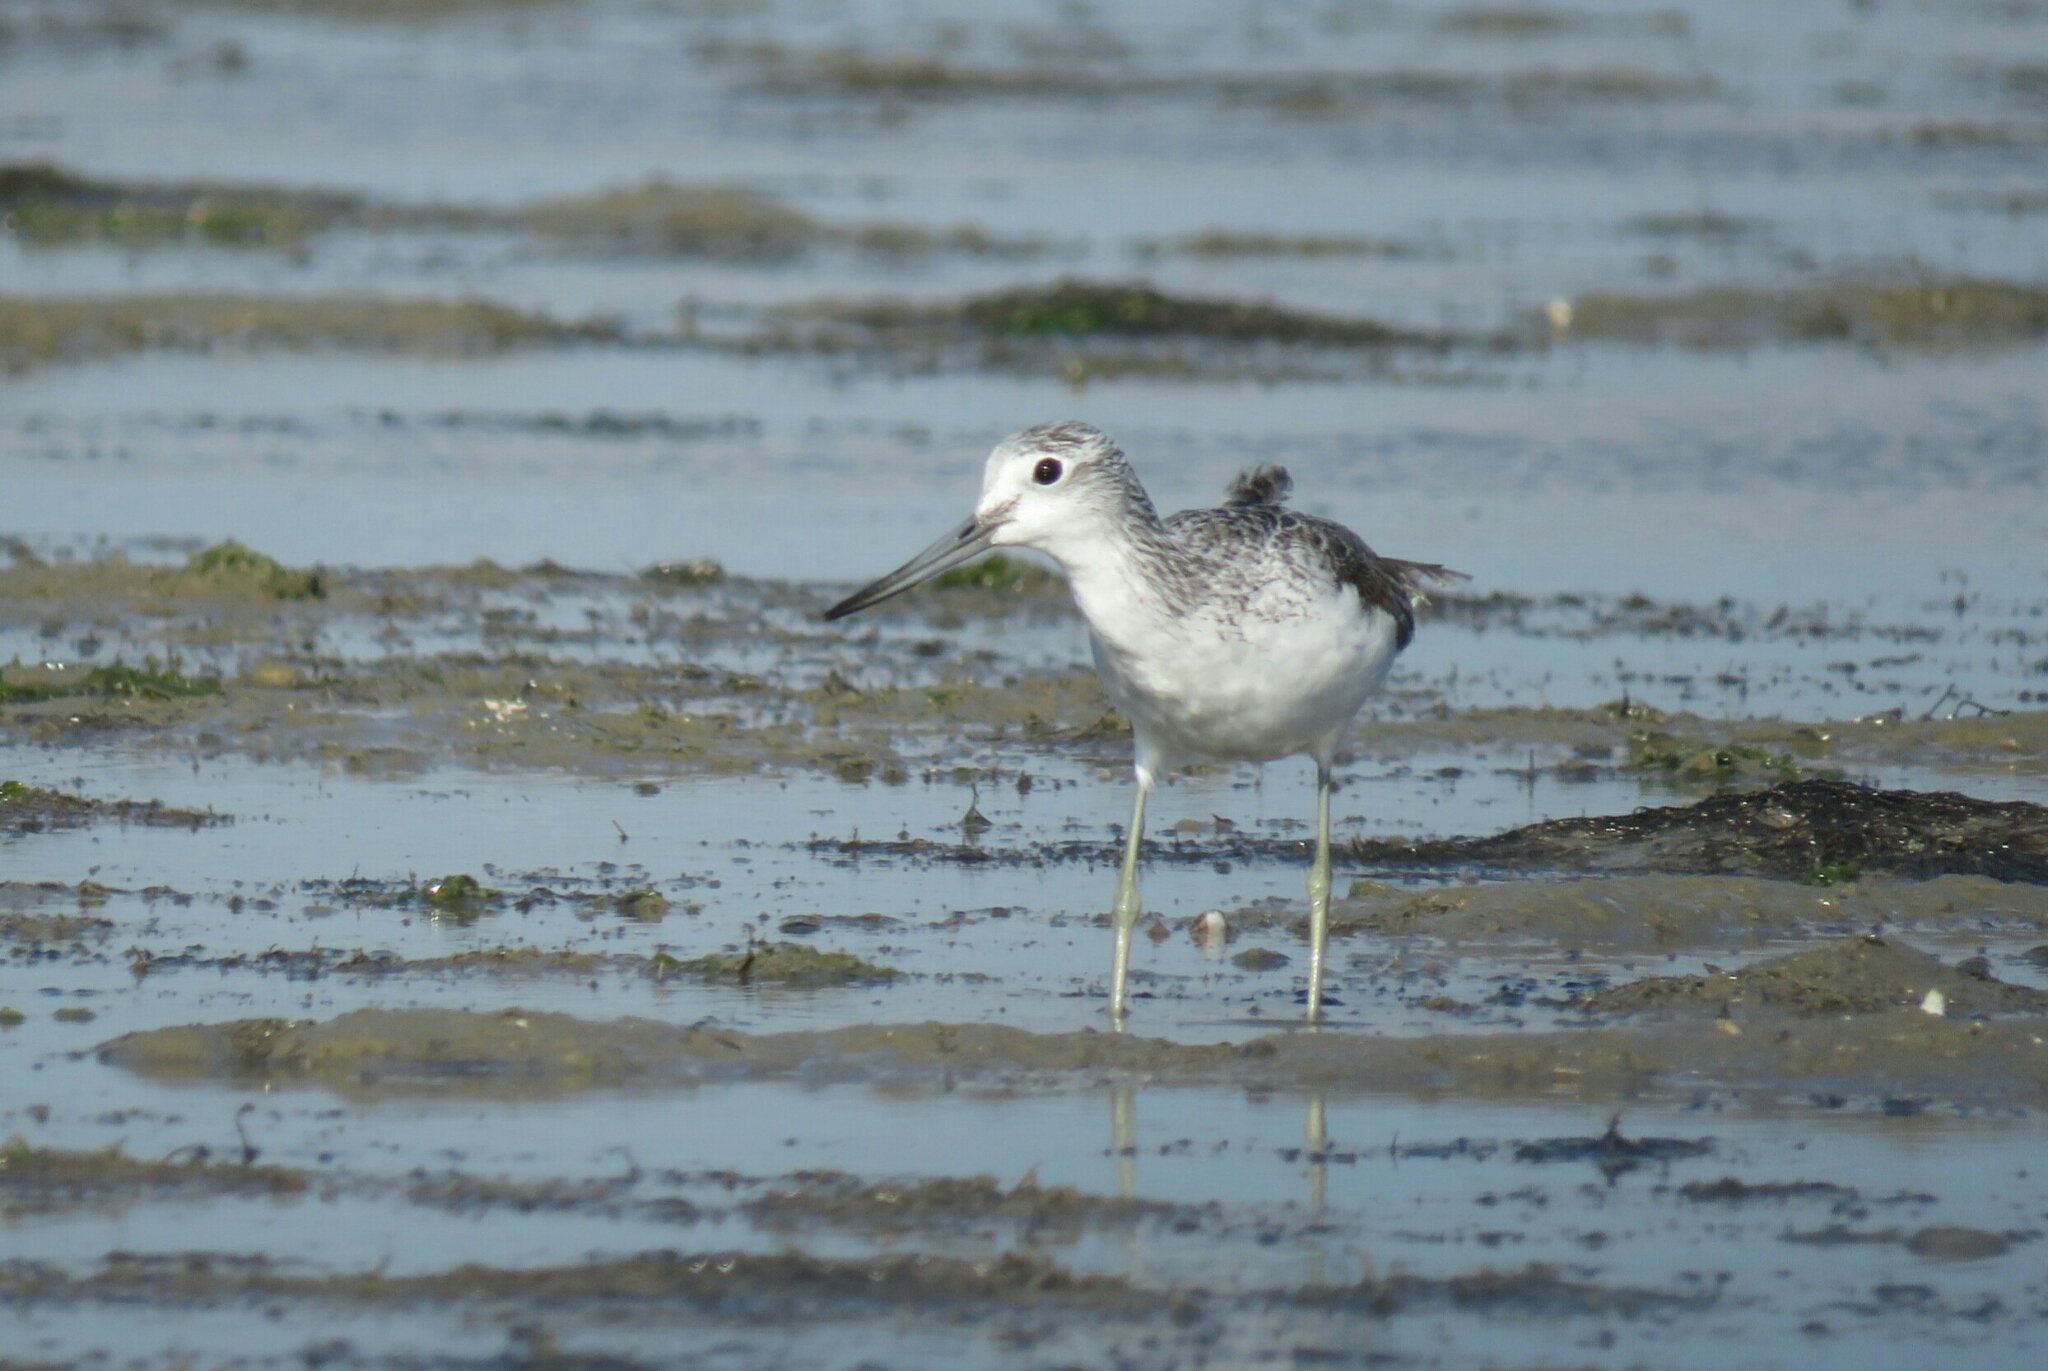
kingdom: Animalia
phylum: Chordata
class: Aves
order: Charadriiformes
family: Scolopacidae
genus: Tringa
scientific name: Tringa nebularia
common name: Common greenshank
